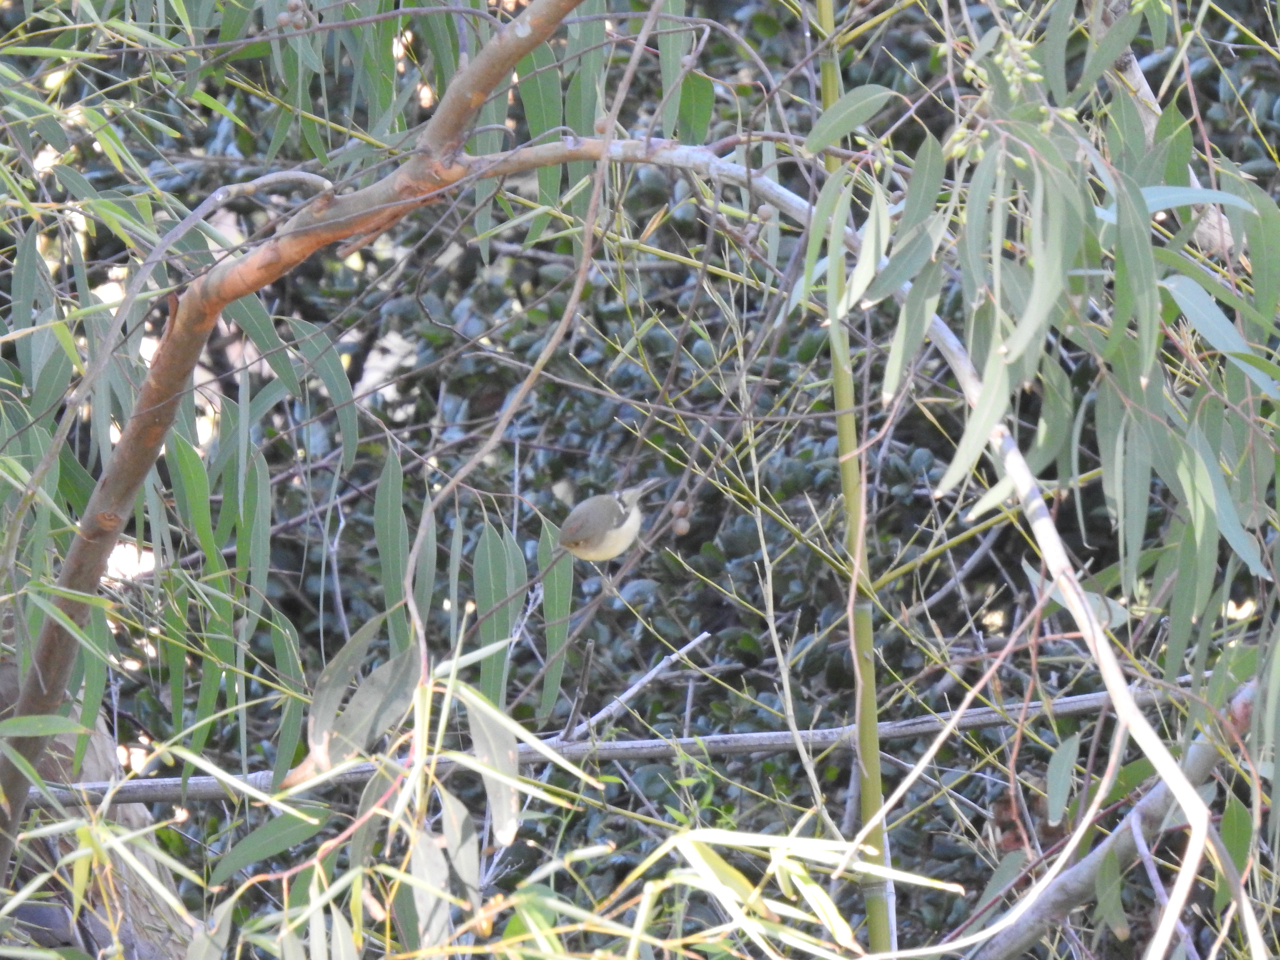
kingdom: Animalia
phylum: Chordata
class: Aves
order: Passeriformes
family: Regulidae
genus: Regulus
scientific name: Regulus calendula
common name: Ruby-crowned kinglet
